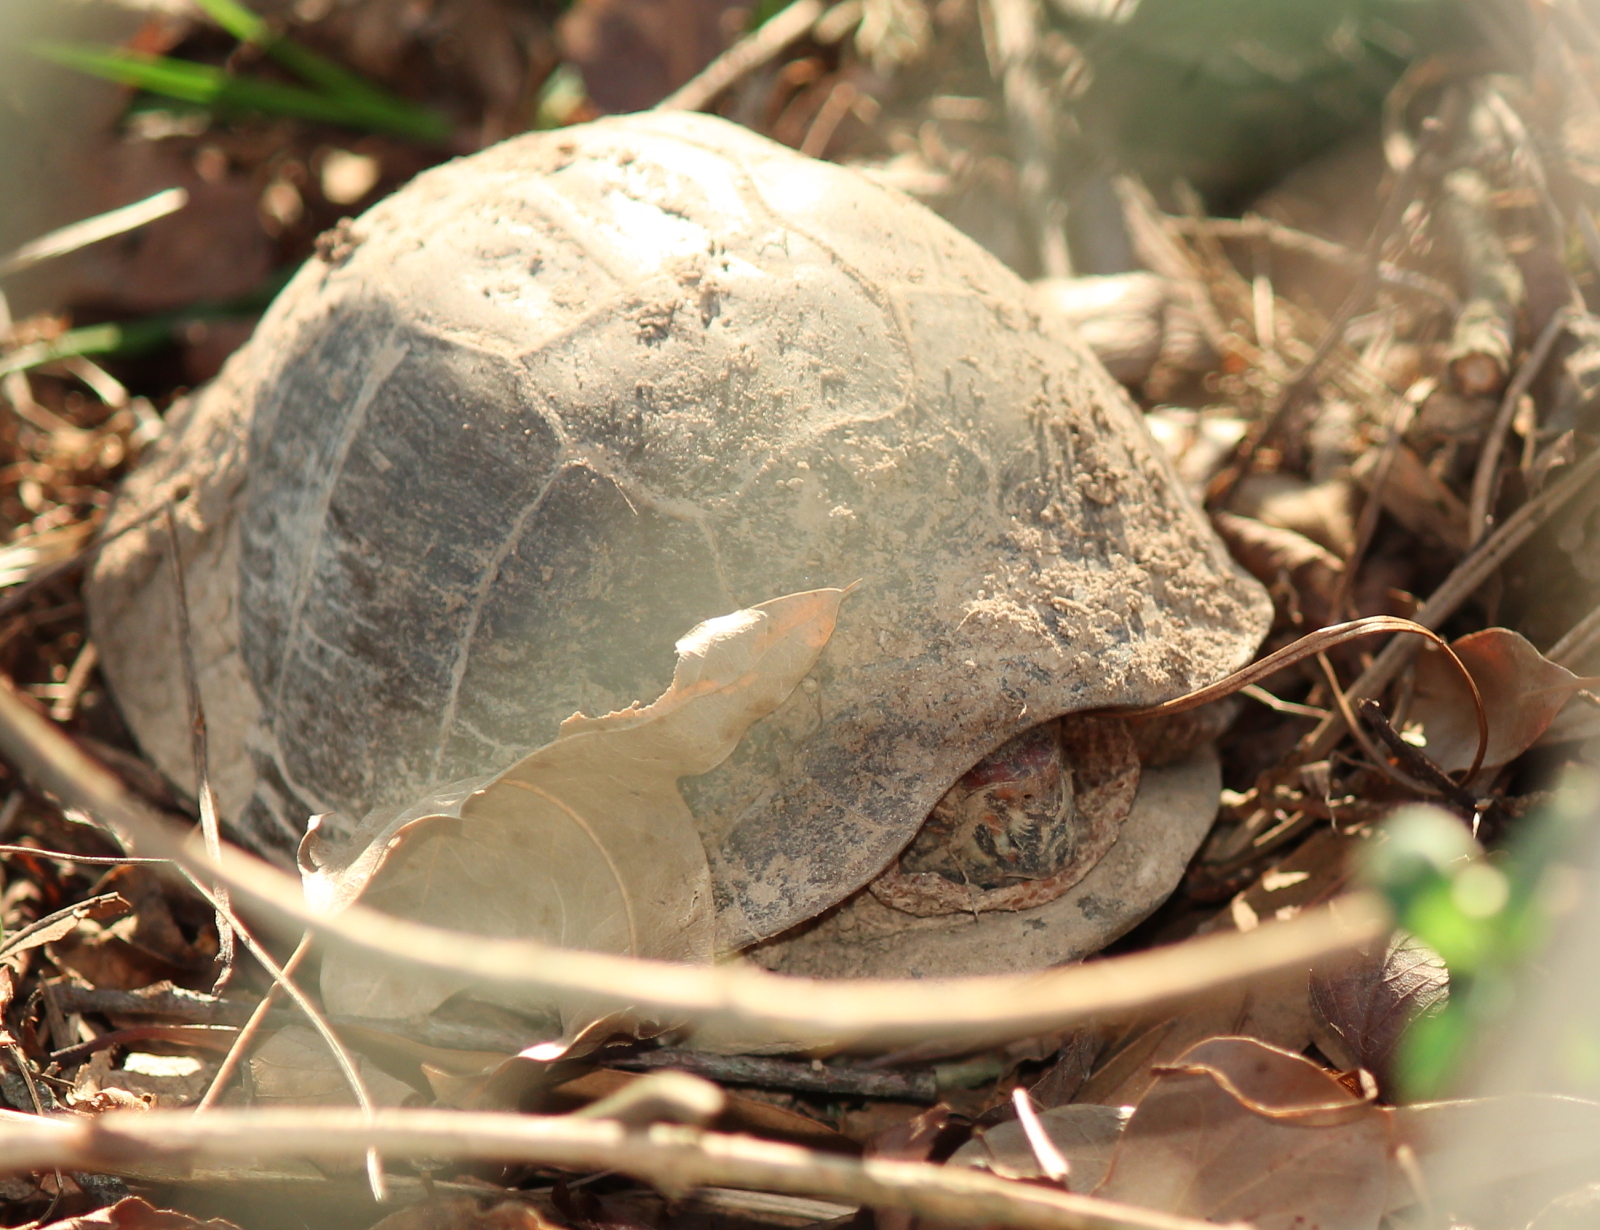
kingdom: Animalia
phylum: Chordata
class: Testudines
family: Emydidae
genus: Terrapene
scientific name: Terrapene carolina
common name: Common box turtle
